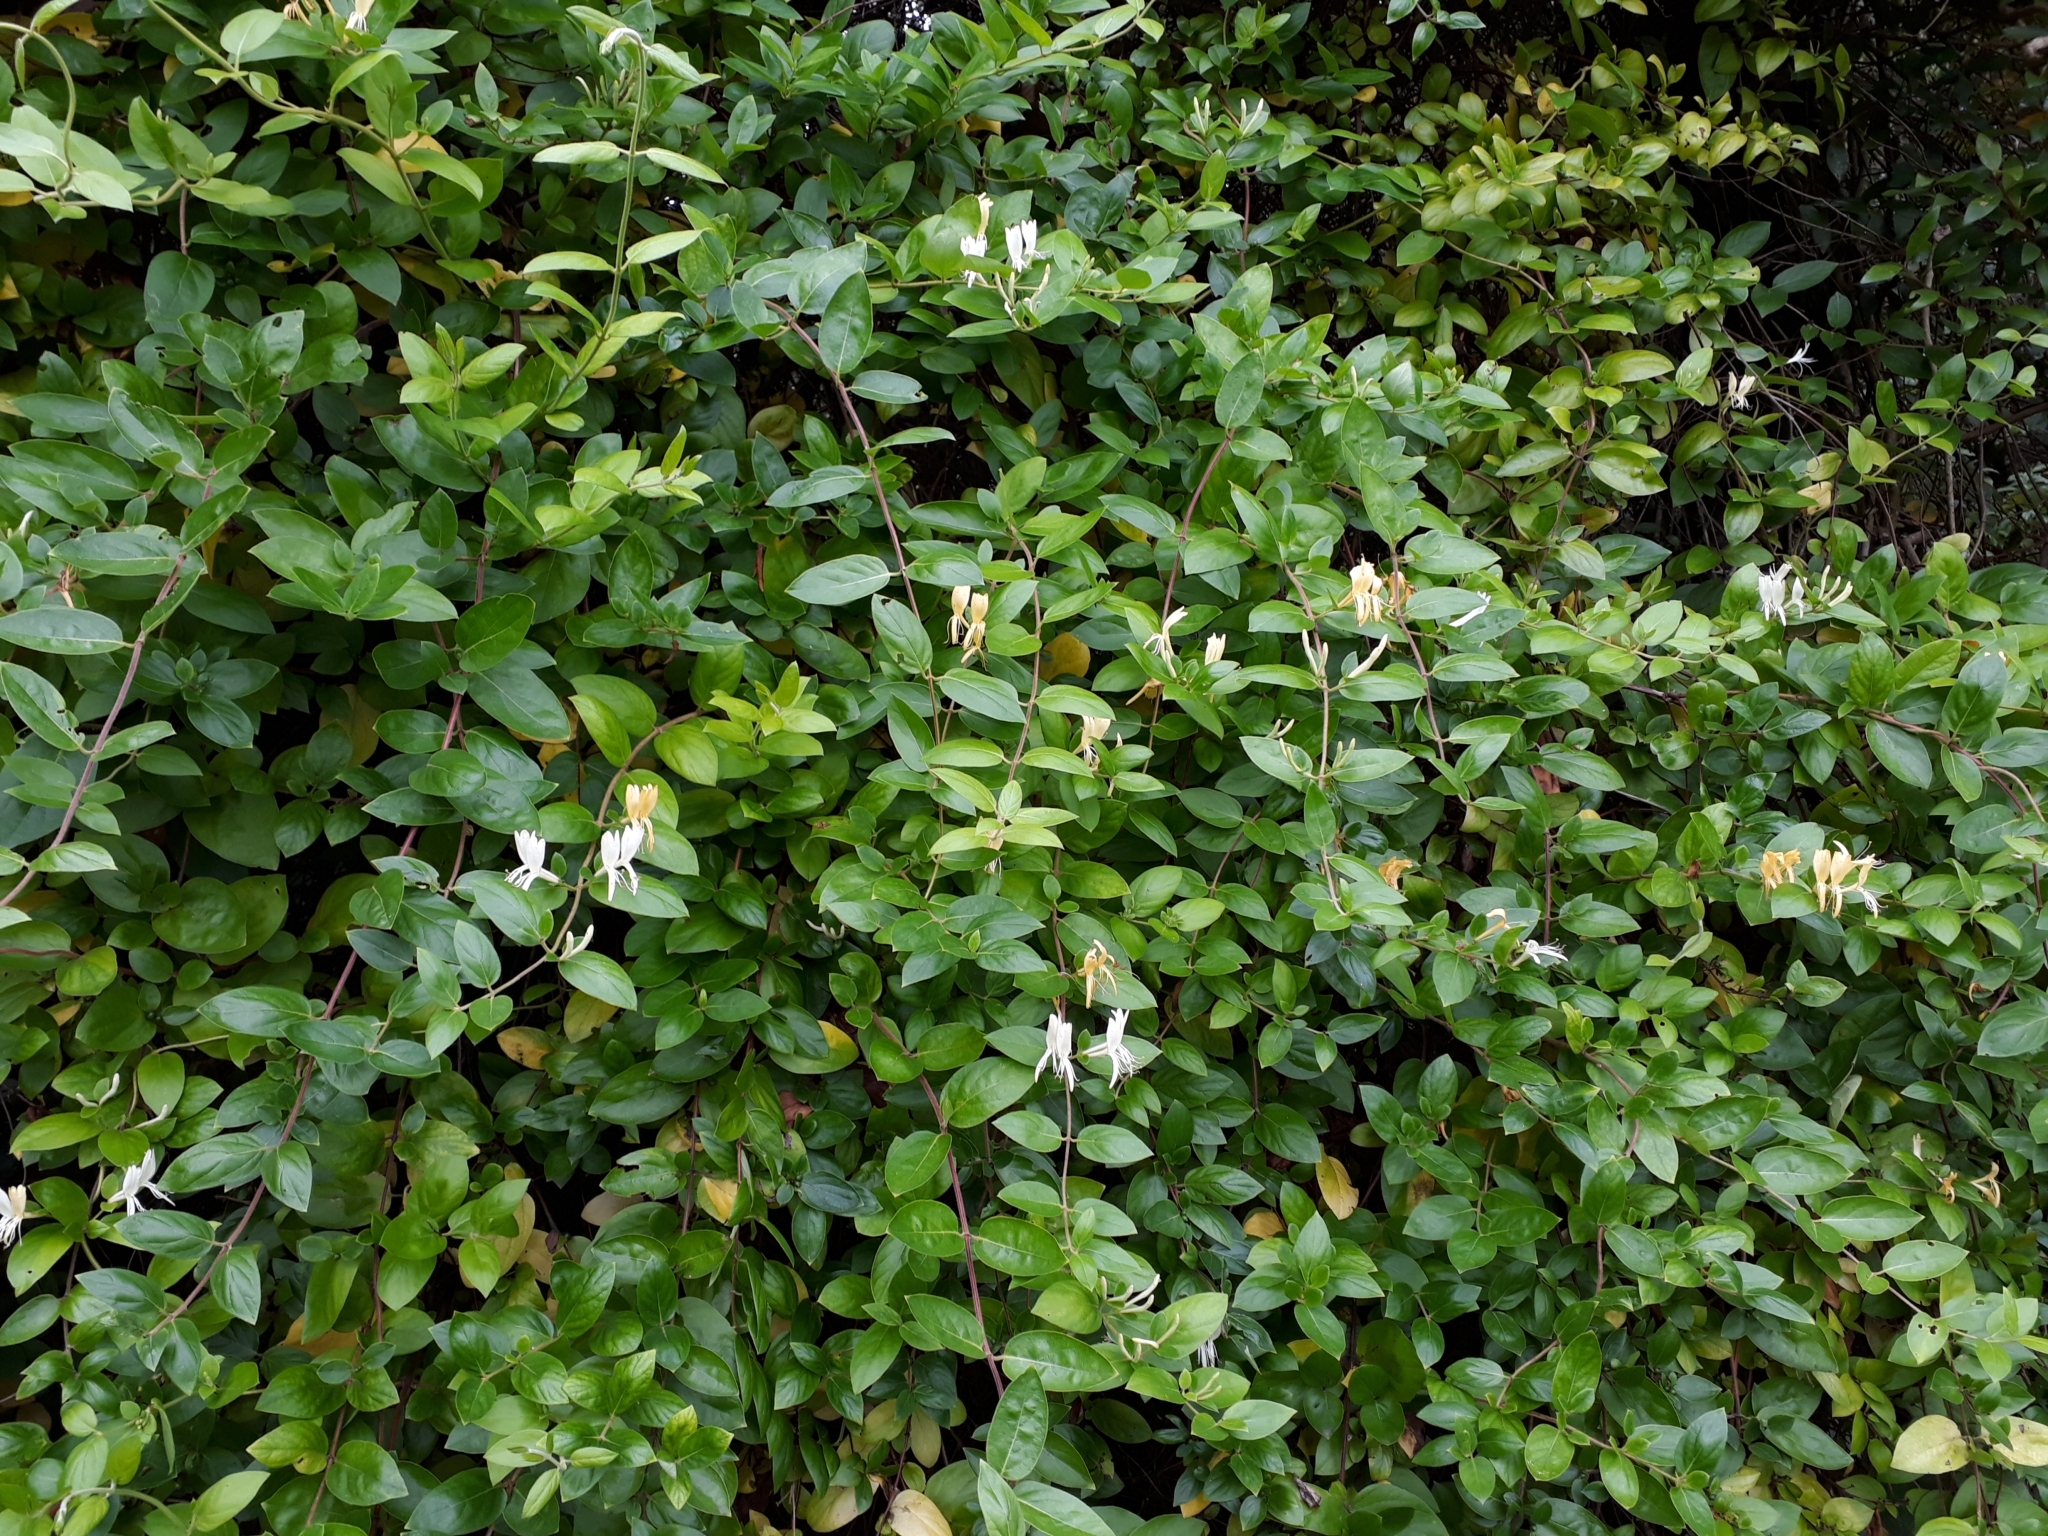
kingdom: Plantae
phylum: Tracheophyta
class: Magnoliopsida
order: Dipsacales
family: Caprifoliaceae
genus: Lonicera
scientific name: Lonicera japonica
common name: Japanese honeysuckle
